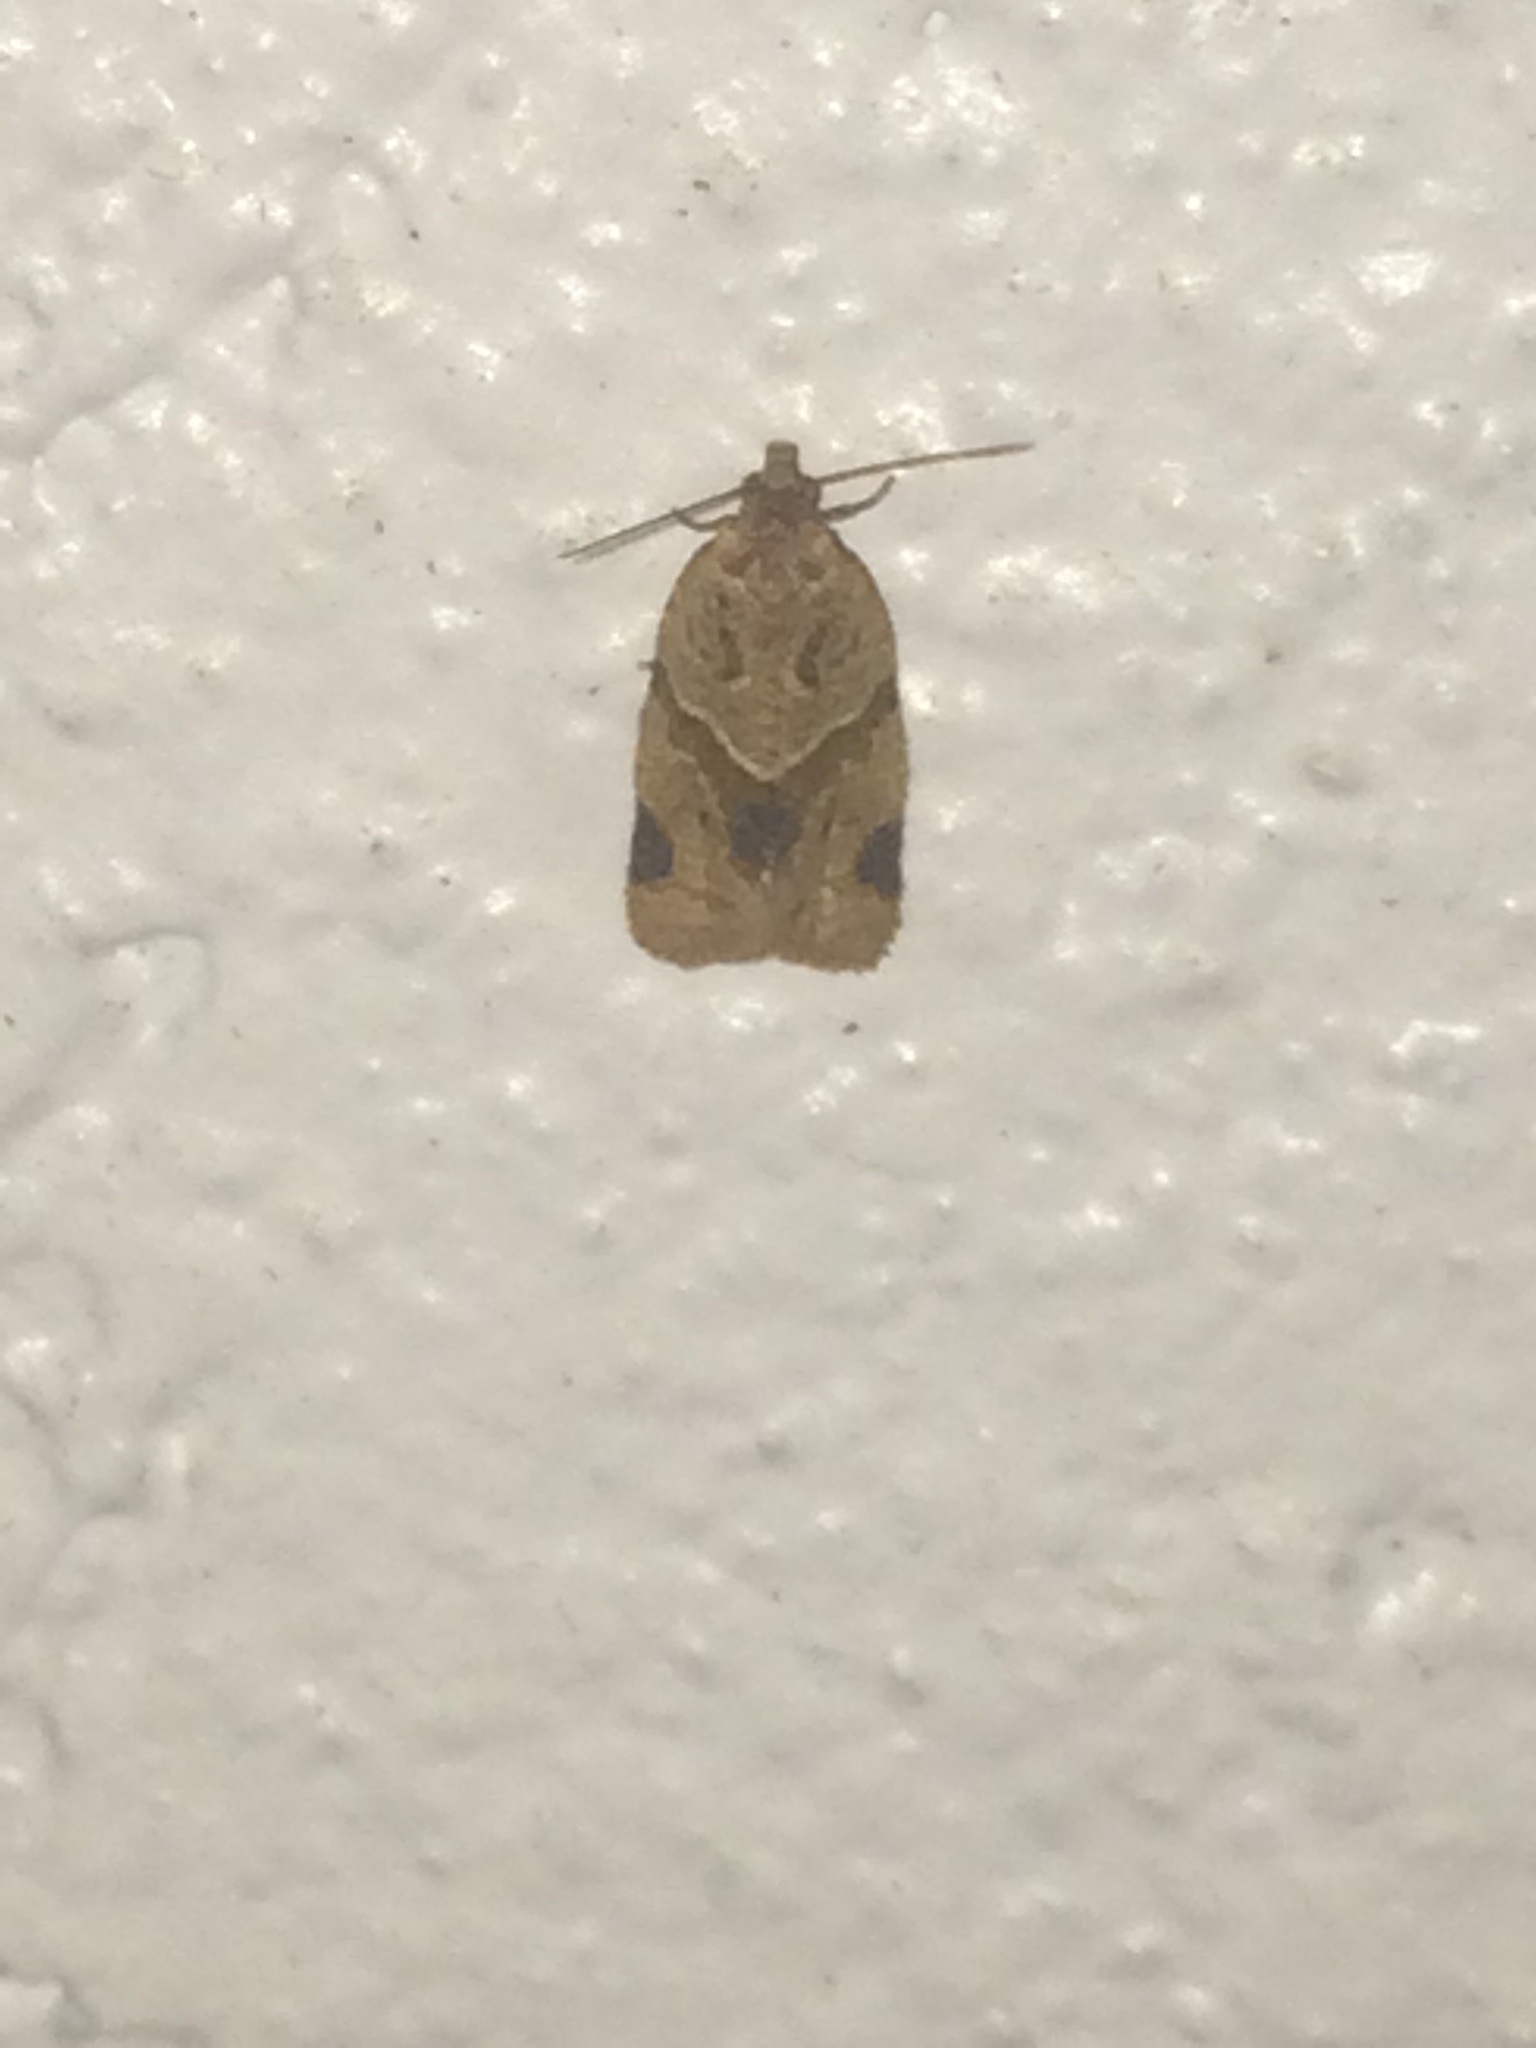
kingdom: Animalia
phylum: Arthropoda
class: Insecta
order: Lepidoptera
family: Tortricidae
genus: Clepsis
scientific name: Clepsis peritana
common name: Garden tortrix
